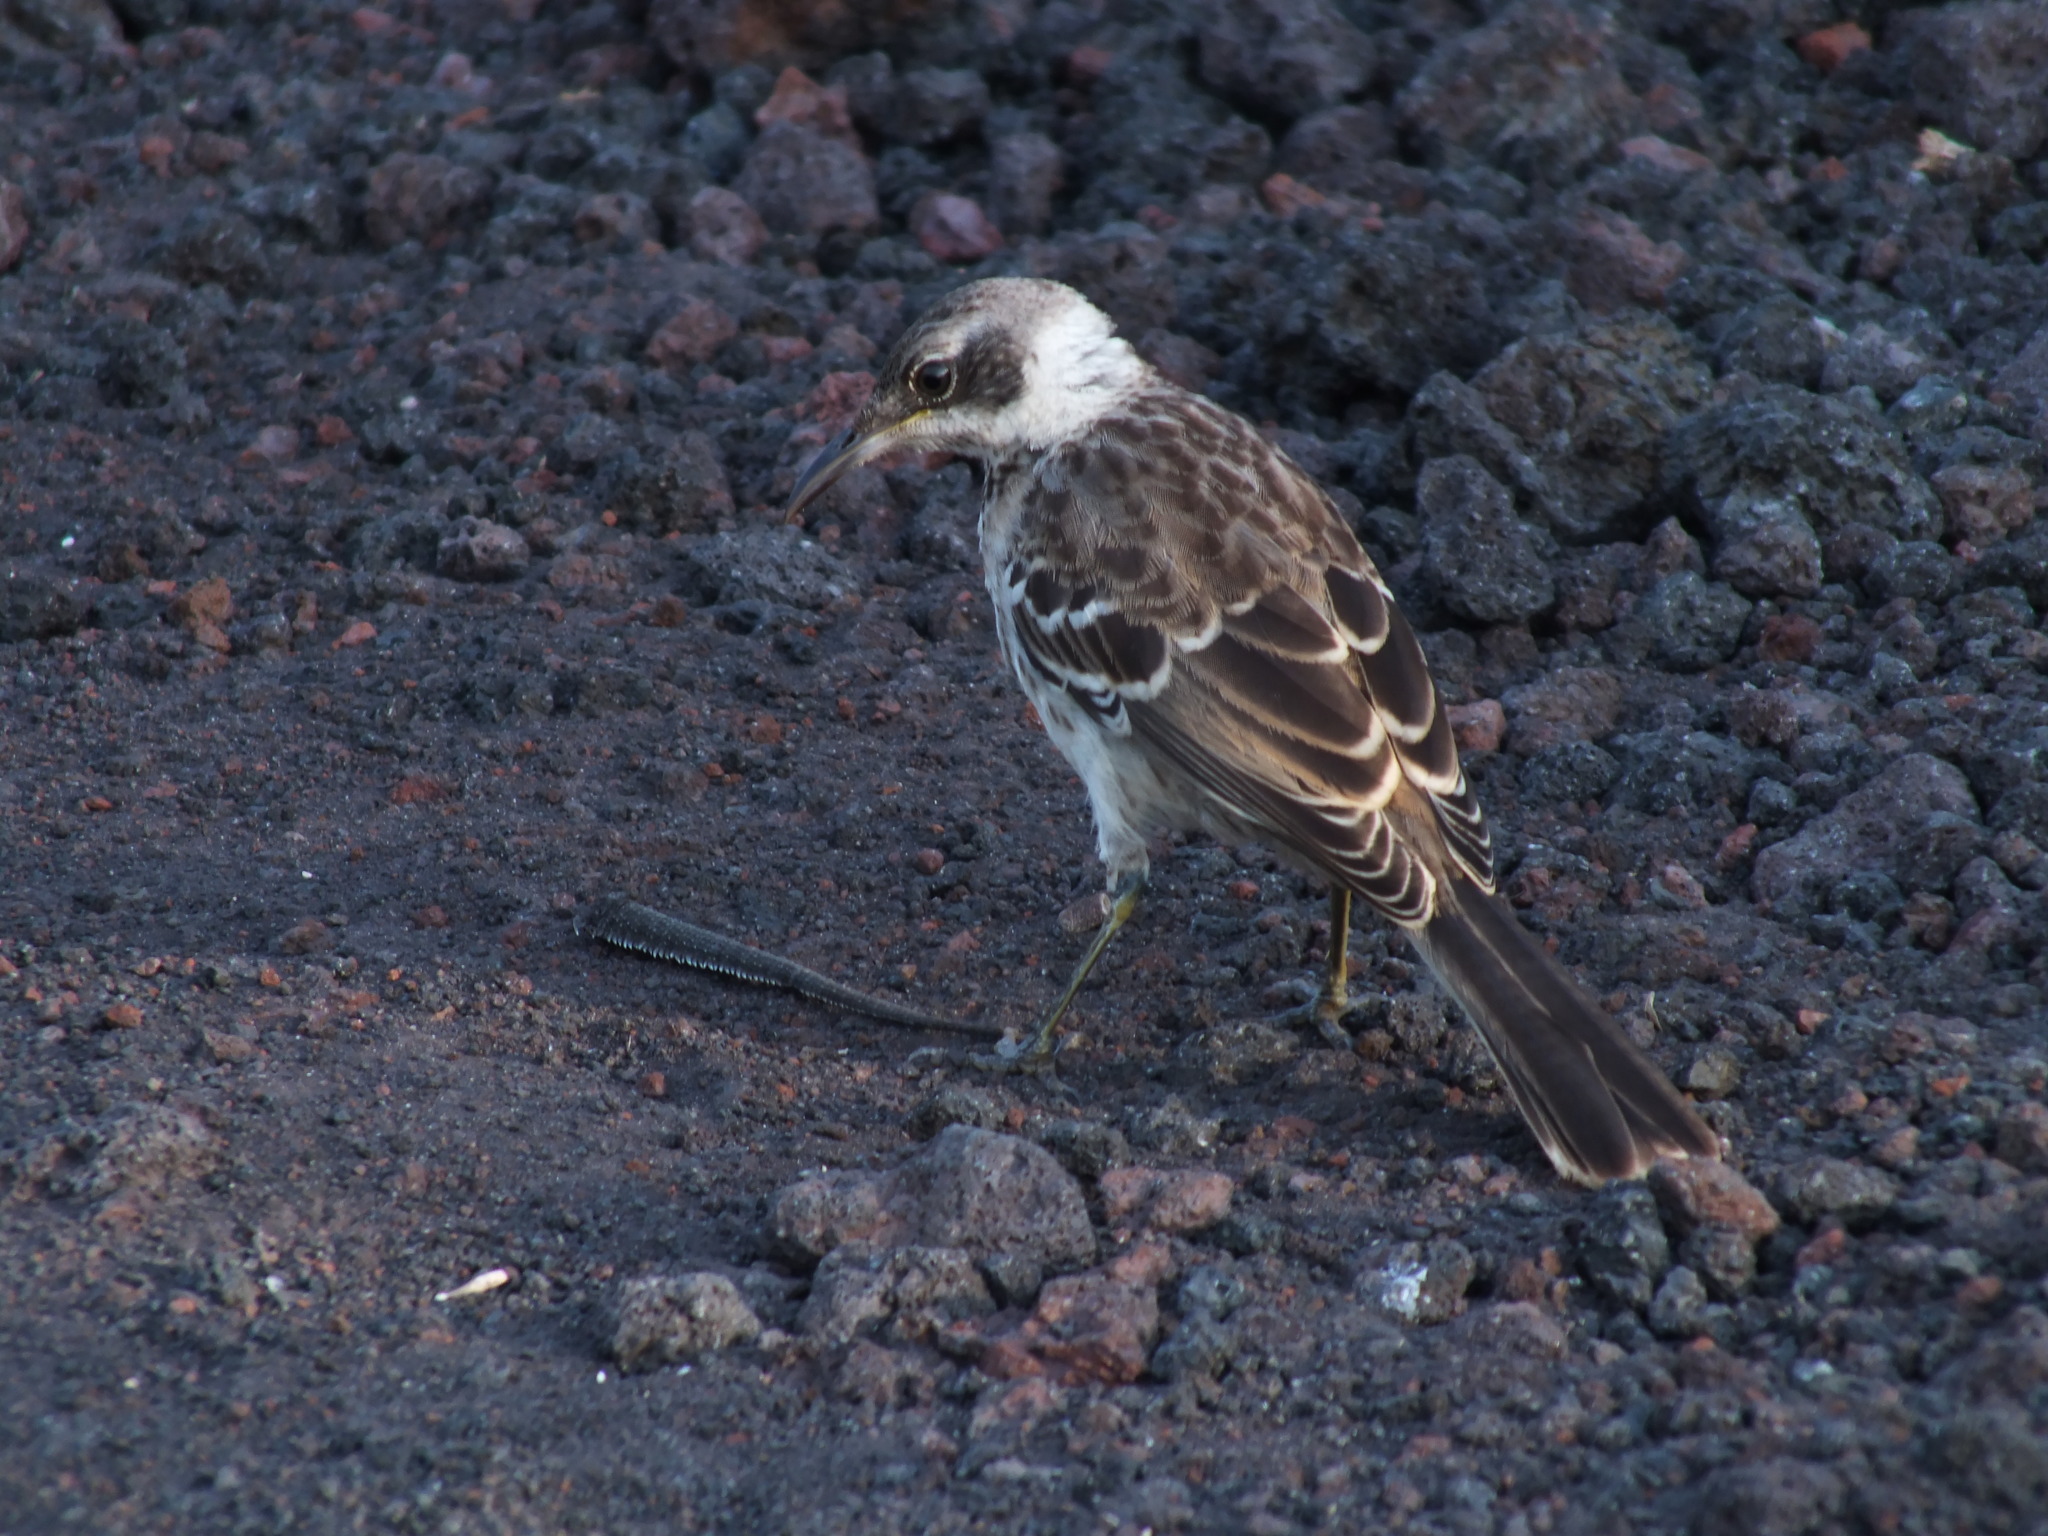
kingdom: Animalia
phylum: Chordata
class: Aves
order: Passeriformes
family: Mimidae
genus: Mimus
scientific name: Mimus parvulus
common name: Galapagos mockingbird
